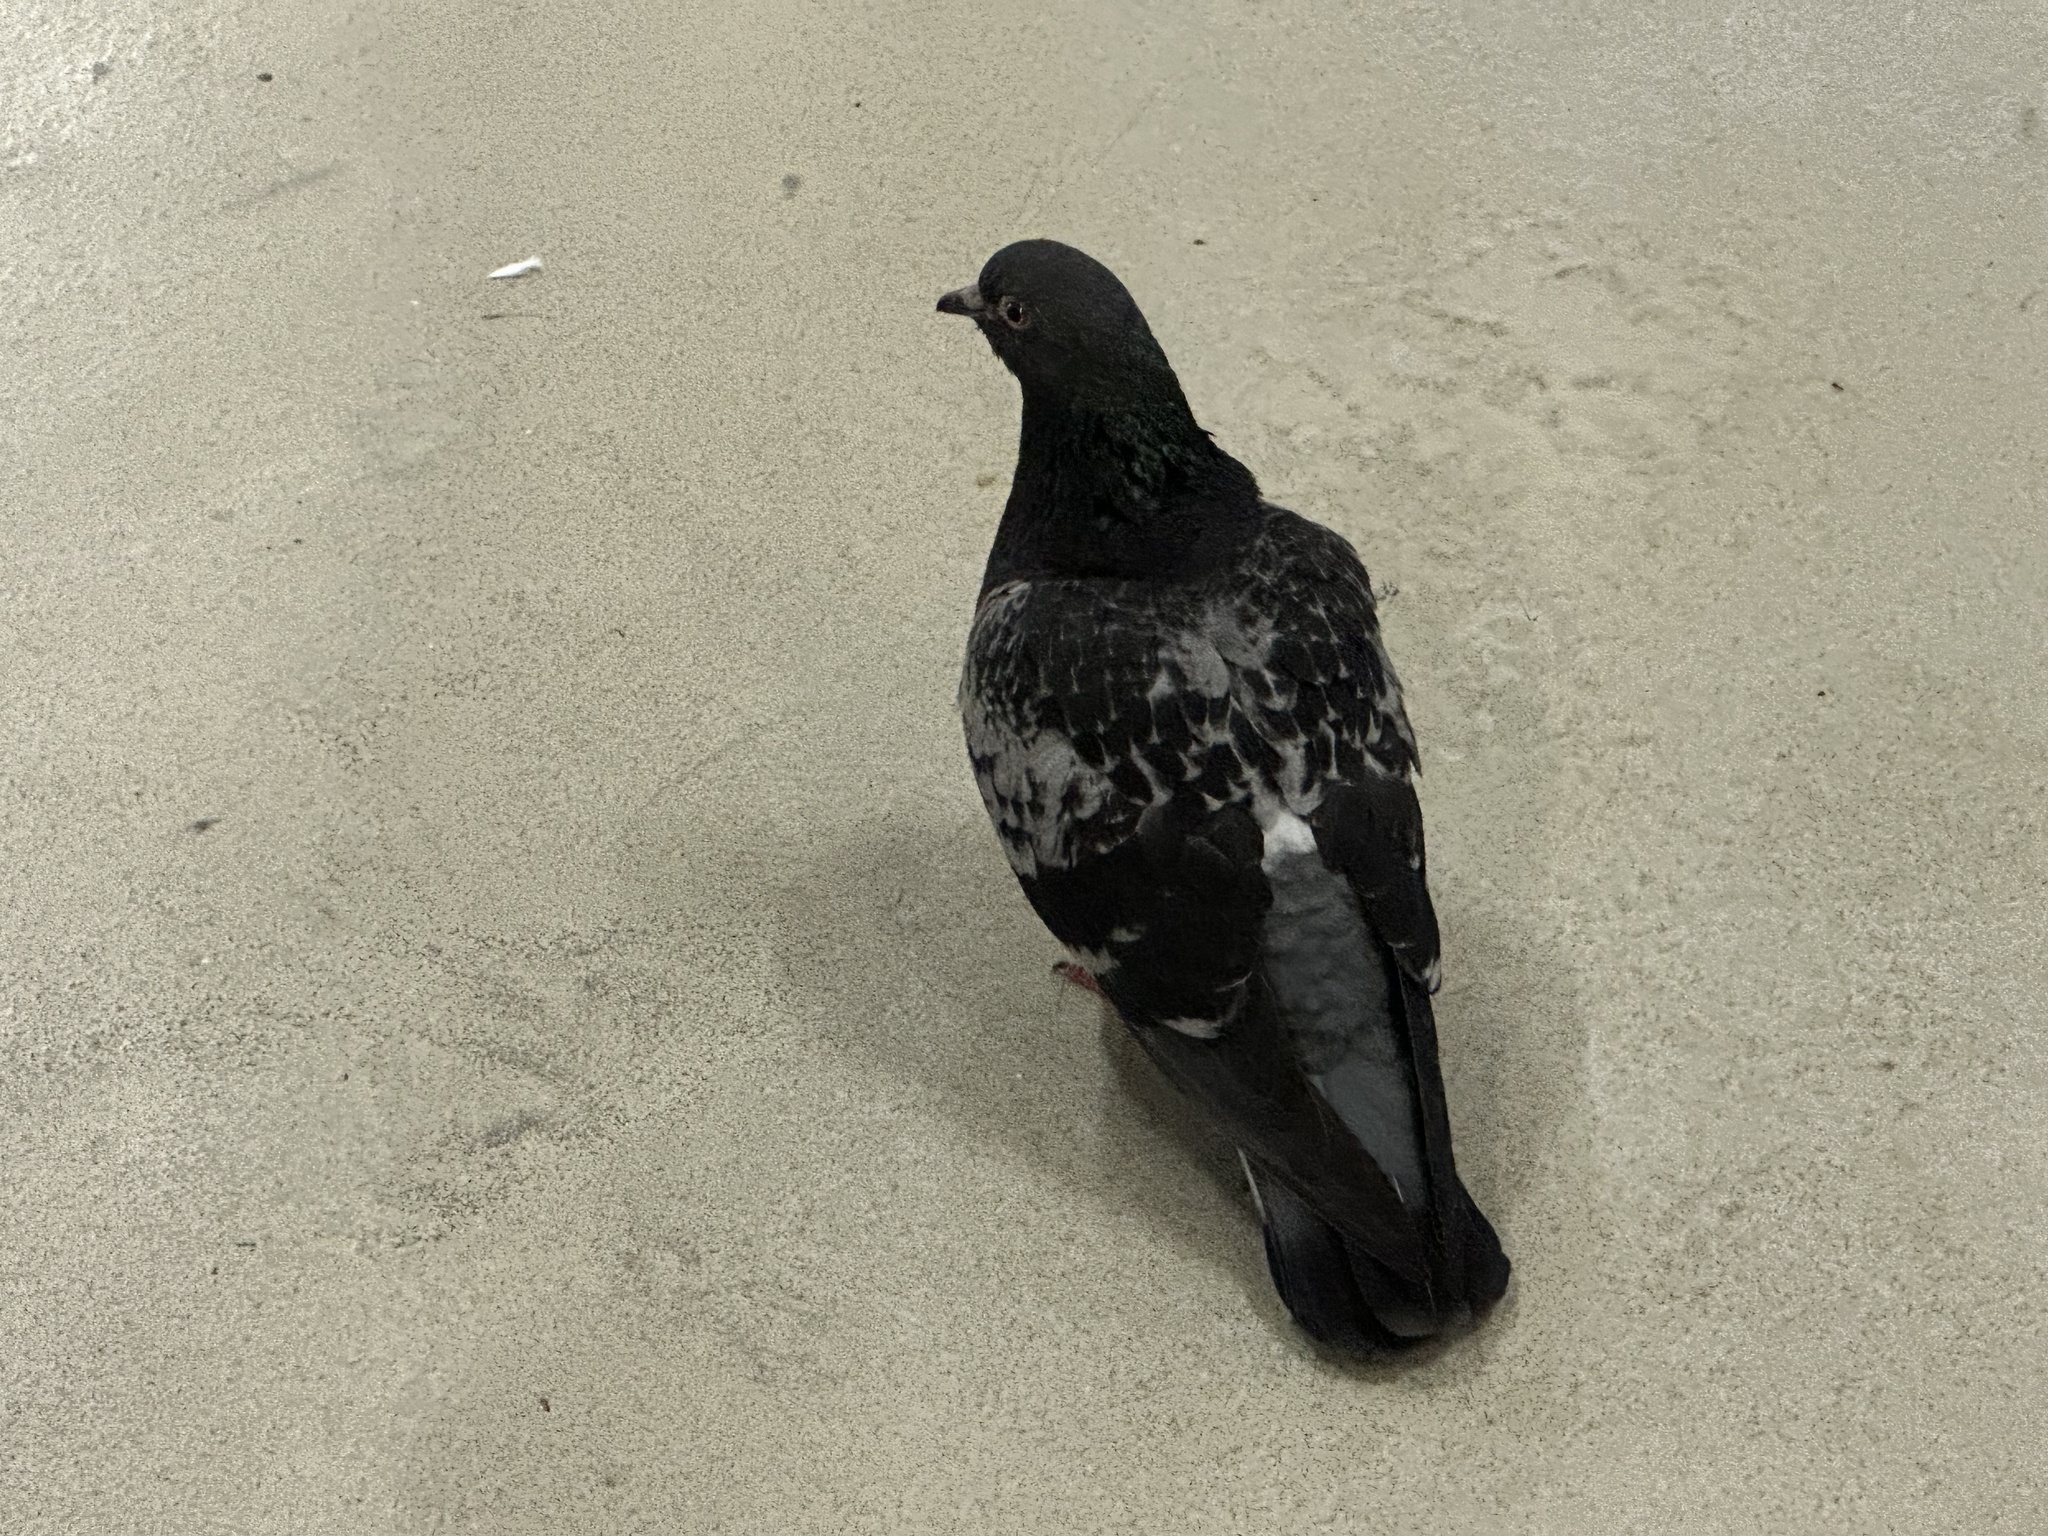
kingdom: Animalia
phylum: Chordata
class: Aves
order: Columbiformes
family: Columbidae
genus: Columba
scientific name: Columba livia
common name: Rock pigeon
